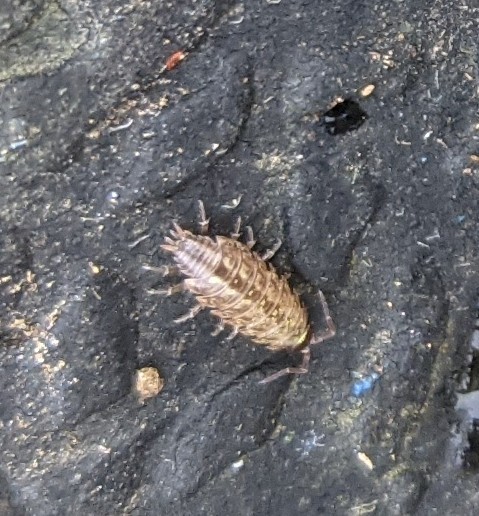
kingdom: Animalia
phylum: Arthropoda
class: Malacostraca
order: Isopoda
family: Philosciidae
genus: Philoscia
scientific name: Philoscia muscorum
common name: Common striped woodlouse
